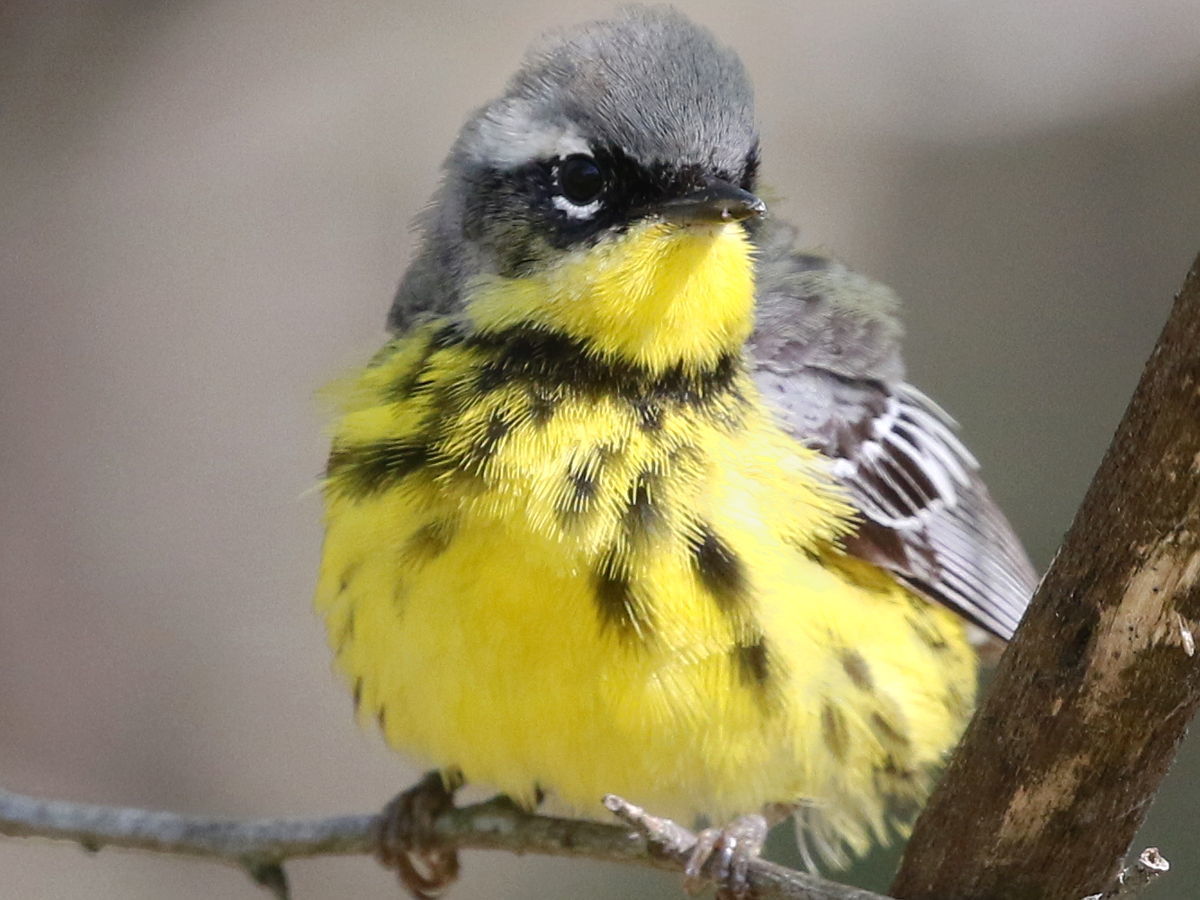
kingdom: Animalia
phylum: Chordata
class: Aves
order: Passeriformes
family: Parulidae
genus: Setophaga
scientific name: Setophaga magnolia
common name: Magnolia warbler
